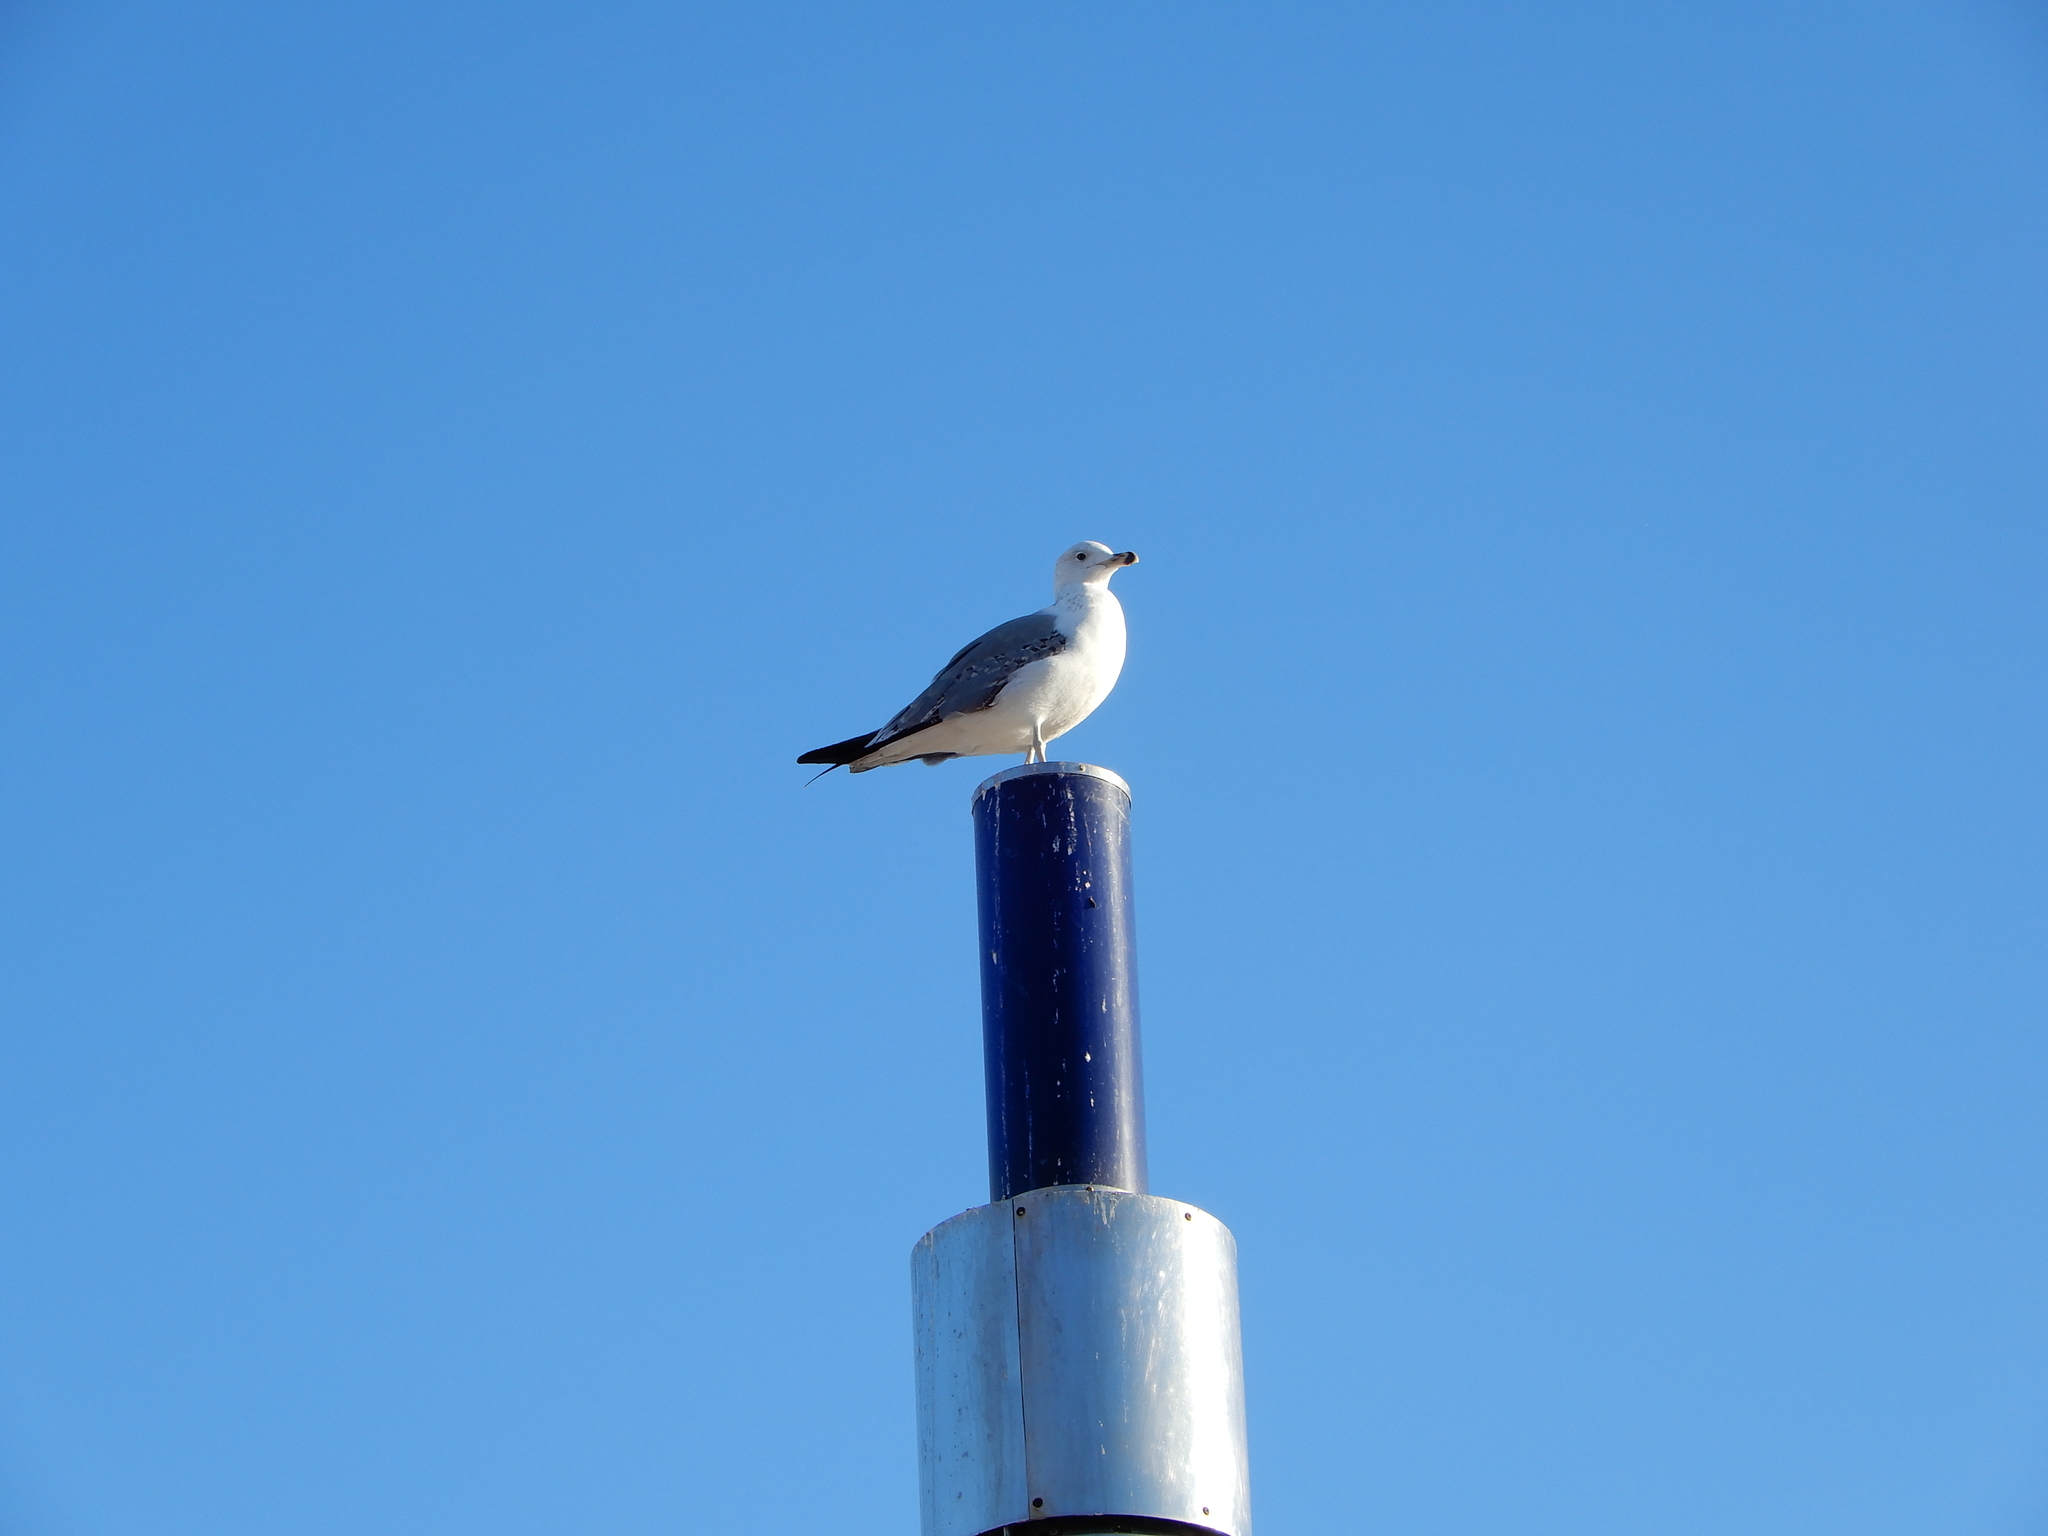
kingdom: Animalia
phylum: Chordata
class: Aves
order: Charadriiformes
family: Laridae
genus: Larus
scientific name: Larus michahellis
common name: Yellow-legged gull
